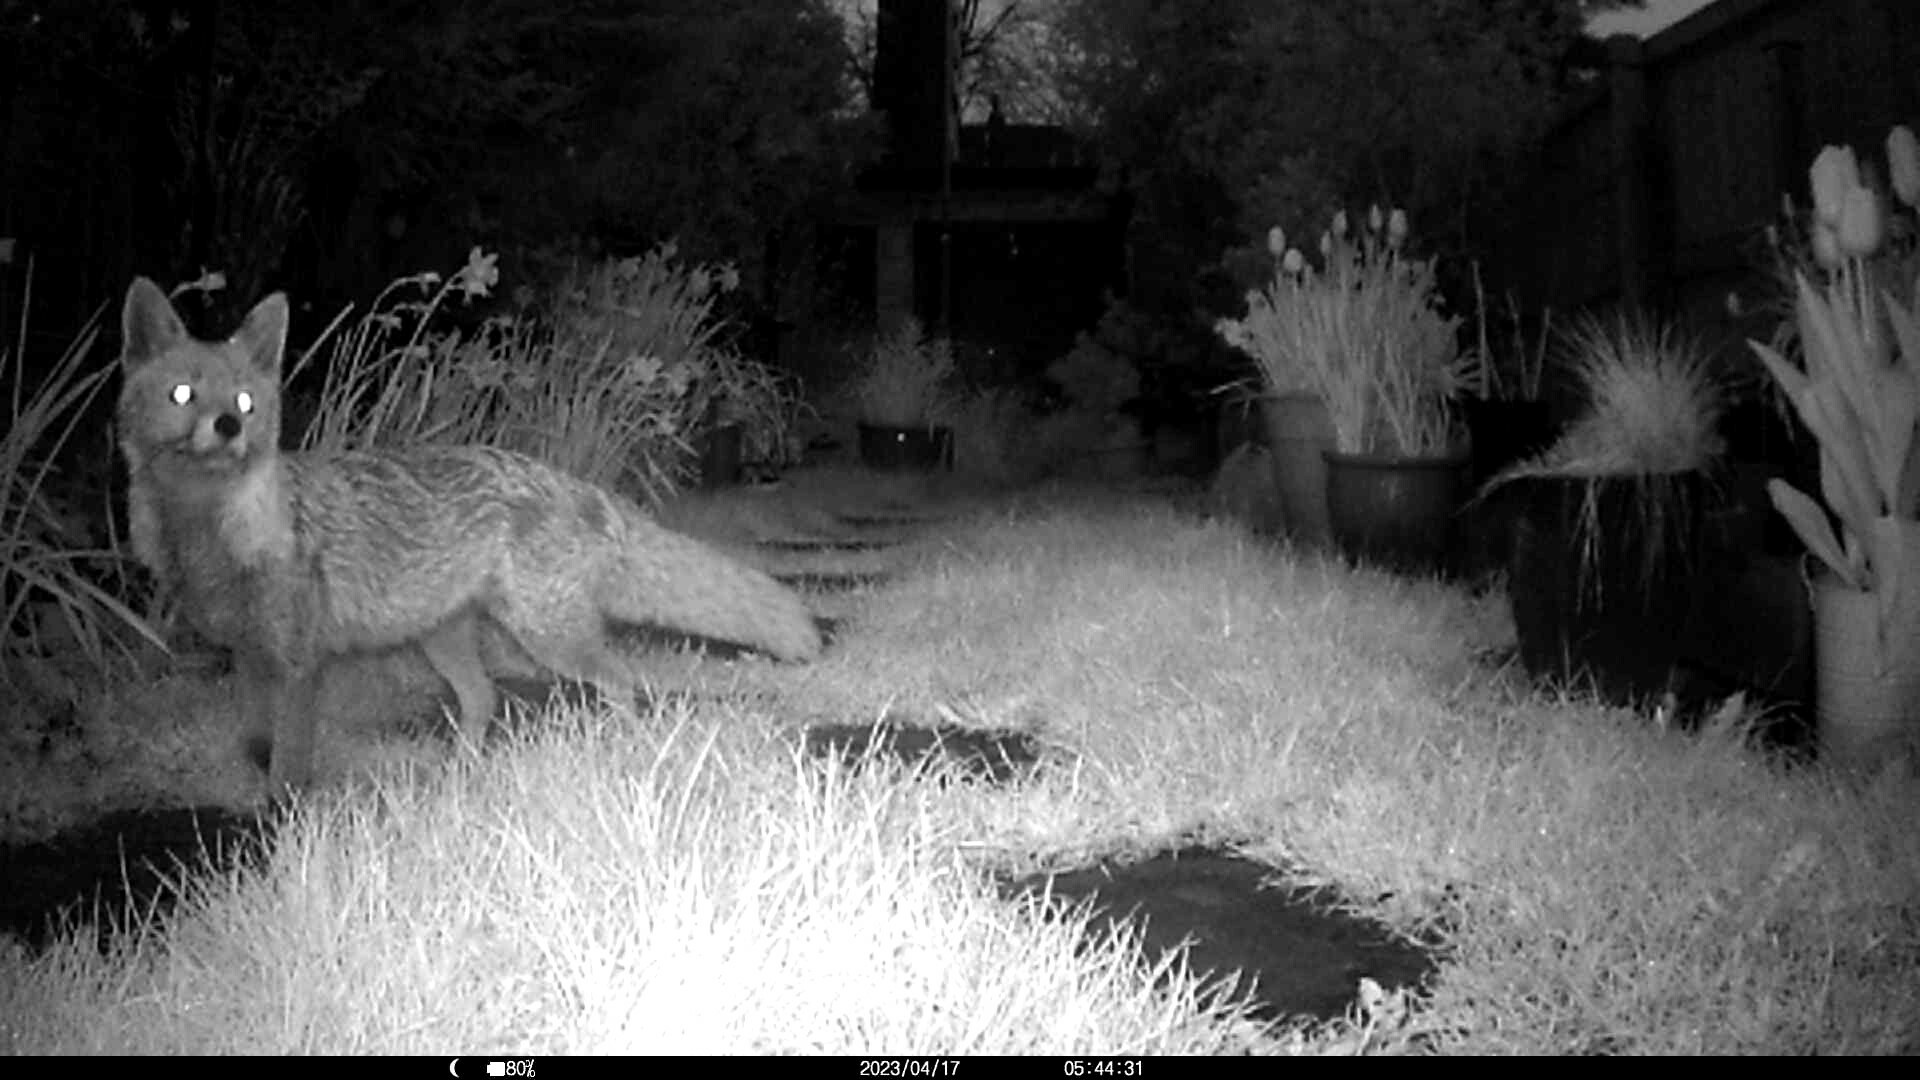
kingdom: Animalia
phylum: Chordata
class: Mammalia
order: Carnivora
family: Canidae
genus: Vulpes
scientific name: Vulpes vulpes
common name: Red fox
